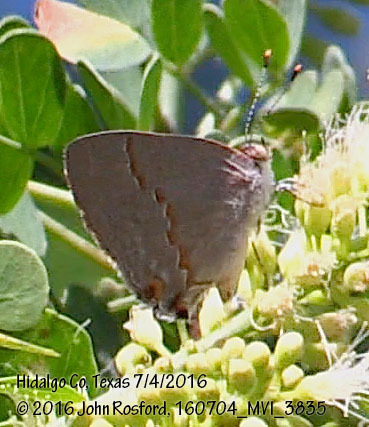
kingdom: Animalia
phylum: Arthropoda
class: Insecta
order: Lepidoptera
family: Lycaenidae
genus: Ministrymon
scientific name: Ministrymon janevicroy
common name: Pebbly ministreak
